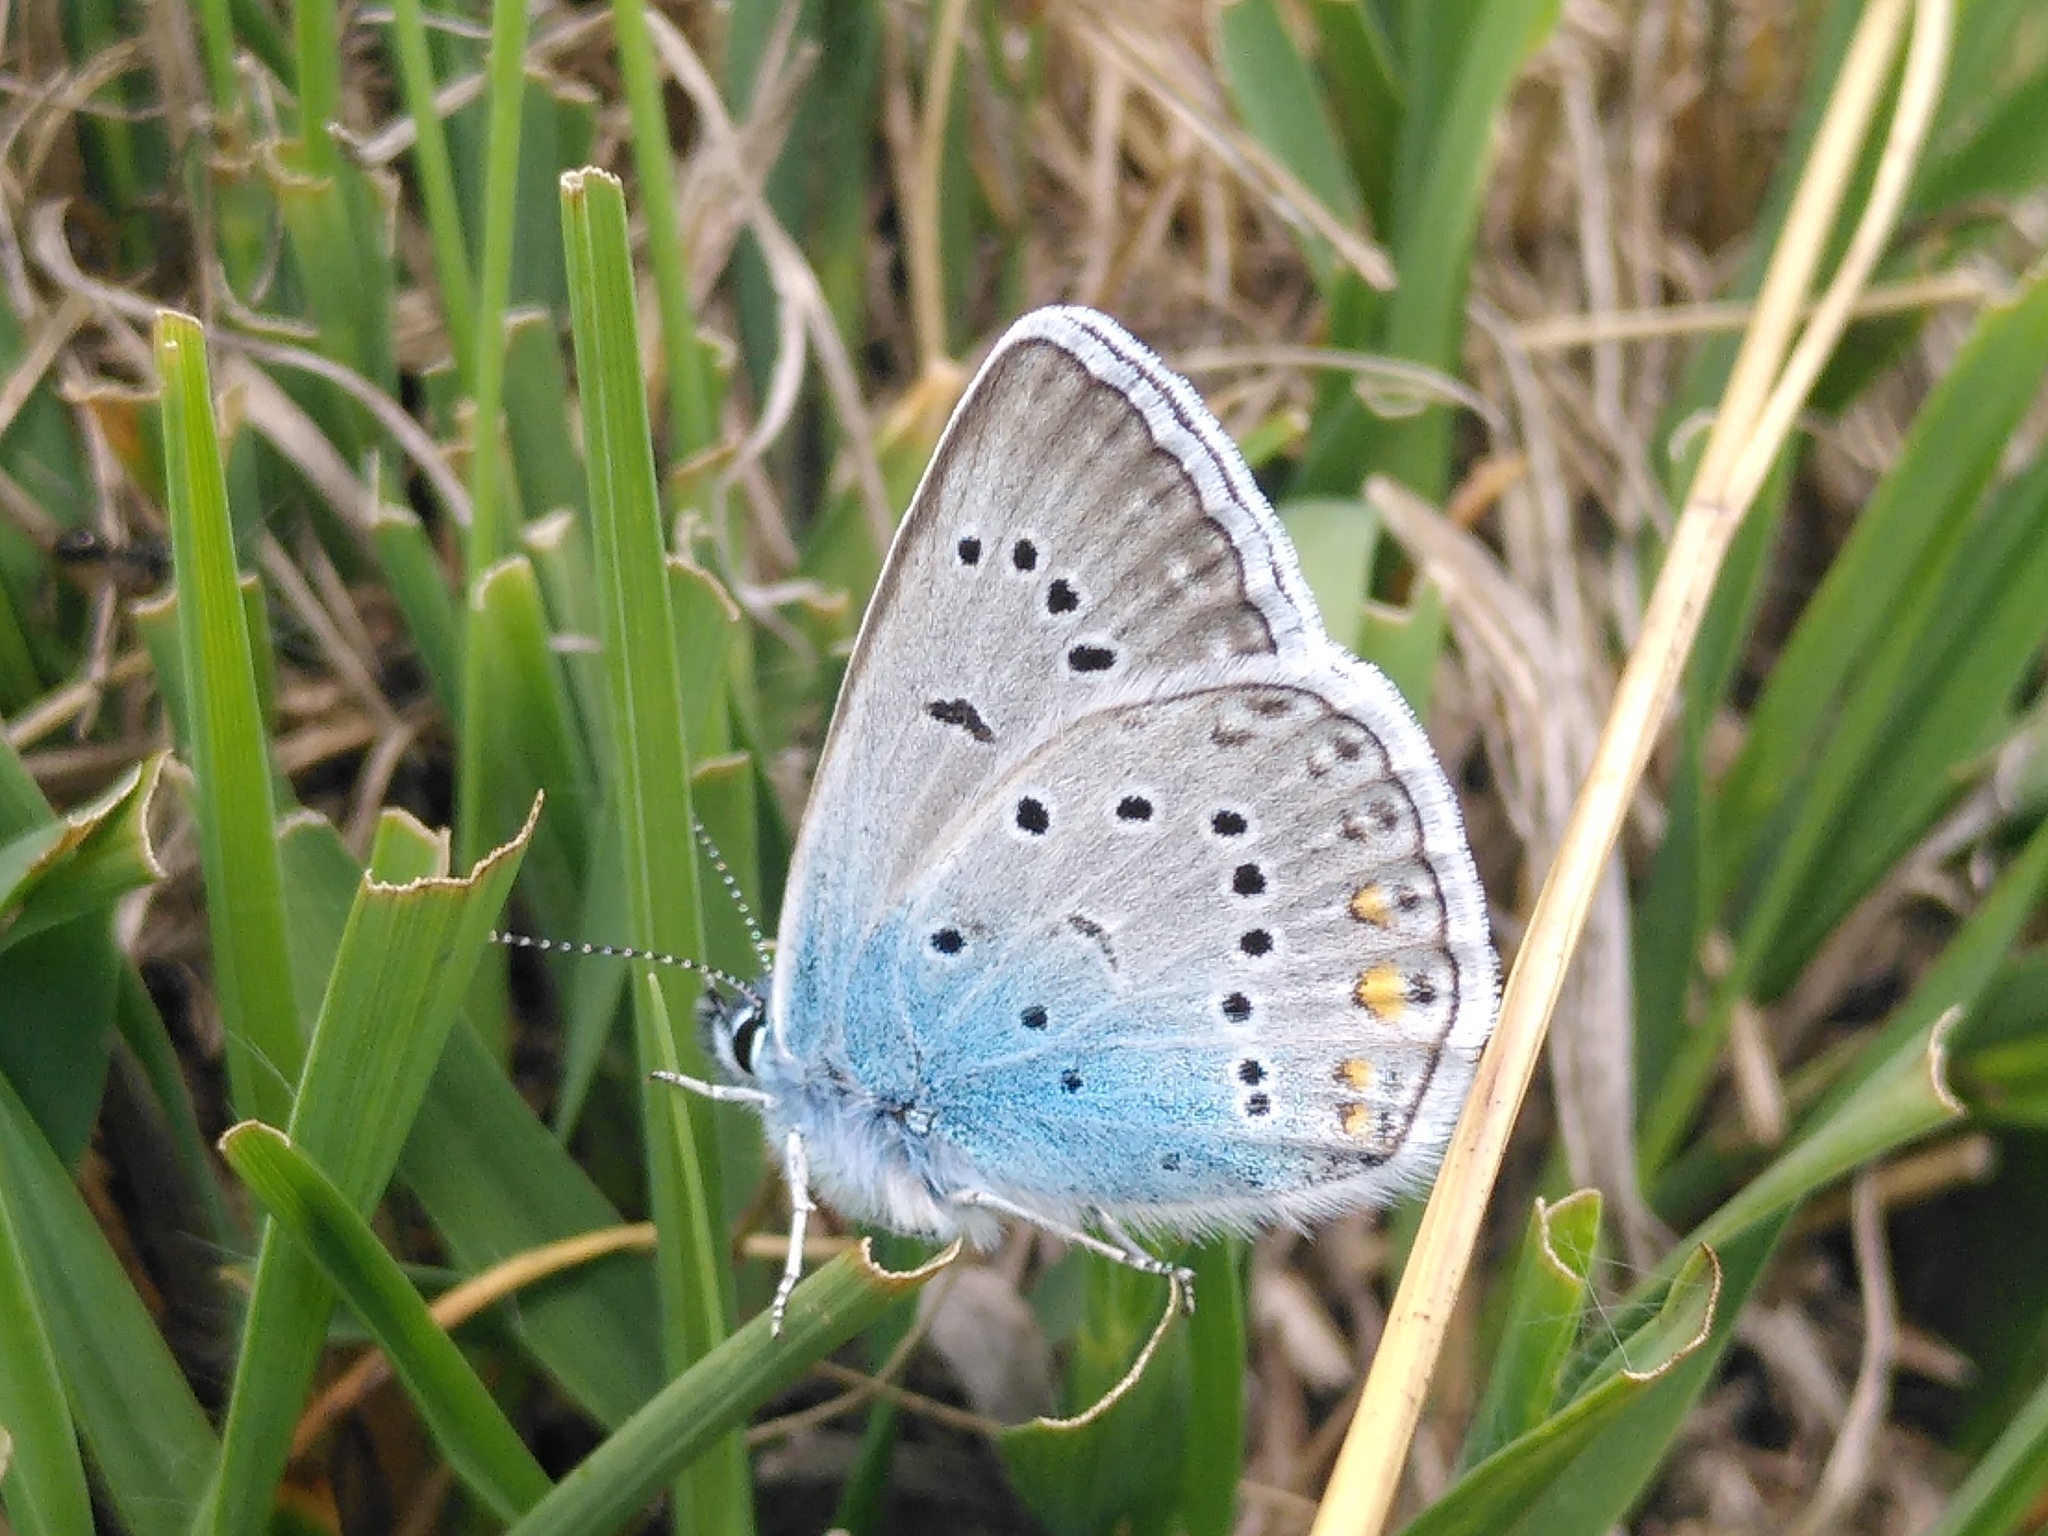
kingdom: Animalia
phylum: Arthropoda
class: Insecta
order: Lepidoptera
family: Lycaenidae
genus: Plebejus
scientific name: Plebejus amanda
